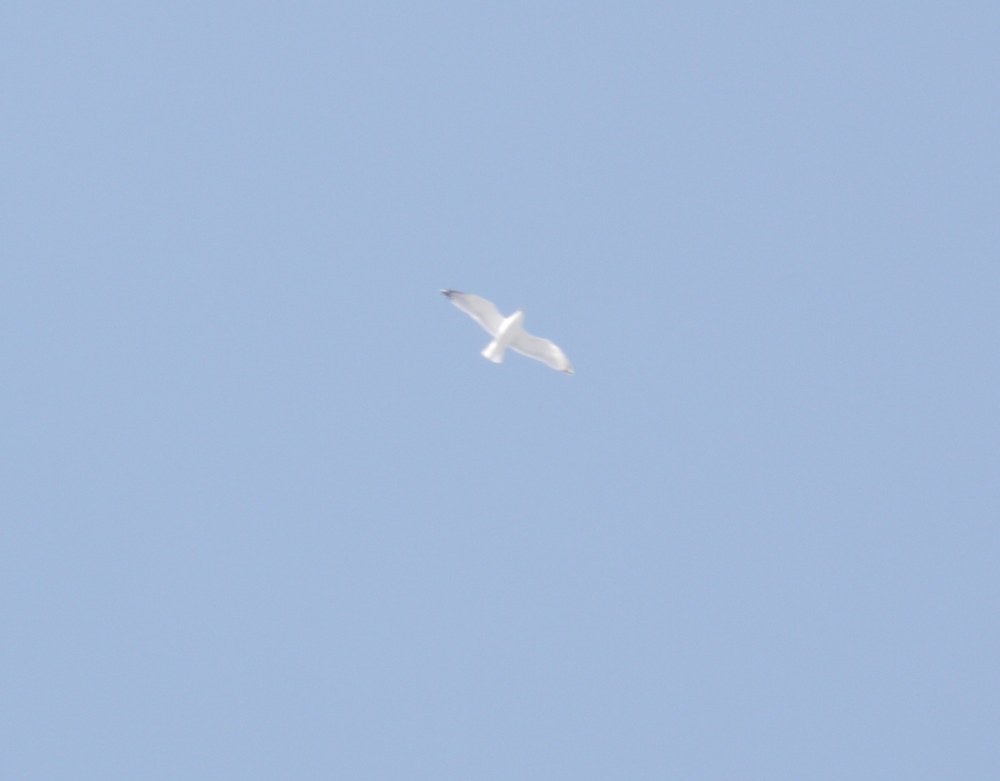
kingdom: Animalia
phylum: Chordata
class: Aves
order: Charadriiformes
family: Laridae
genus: Larus
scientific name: Larus
